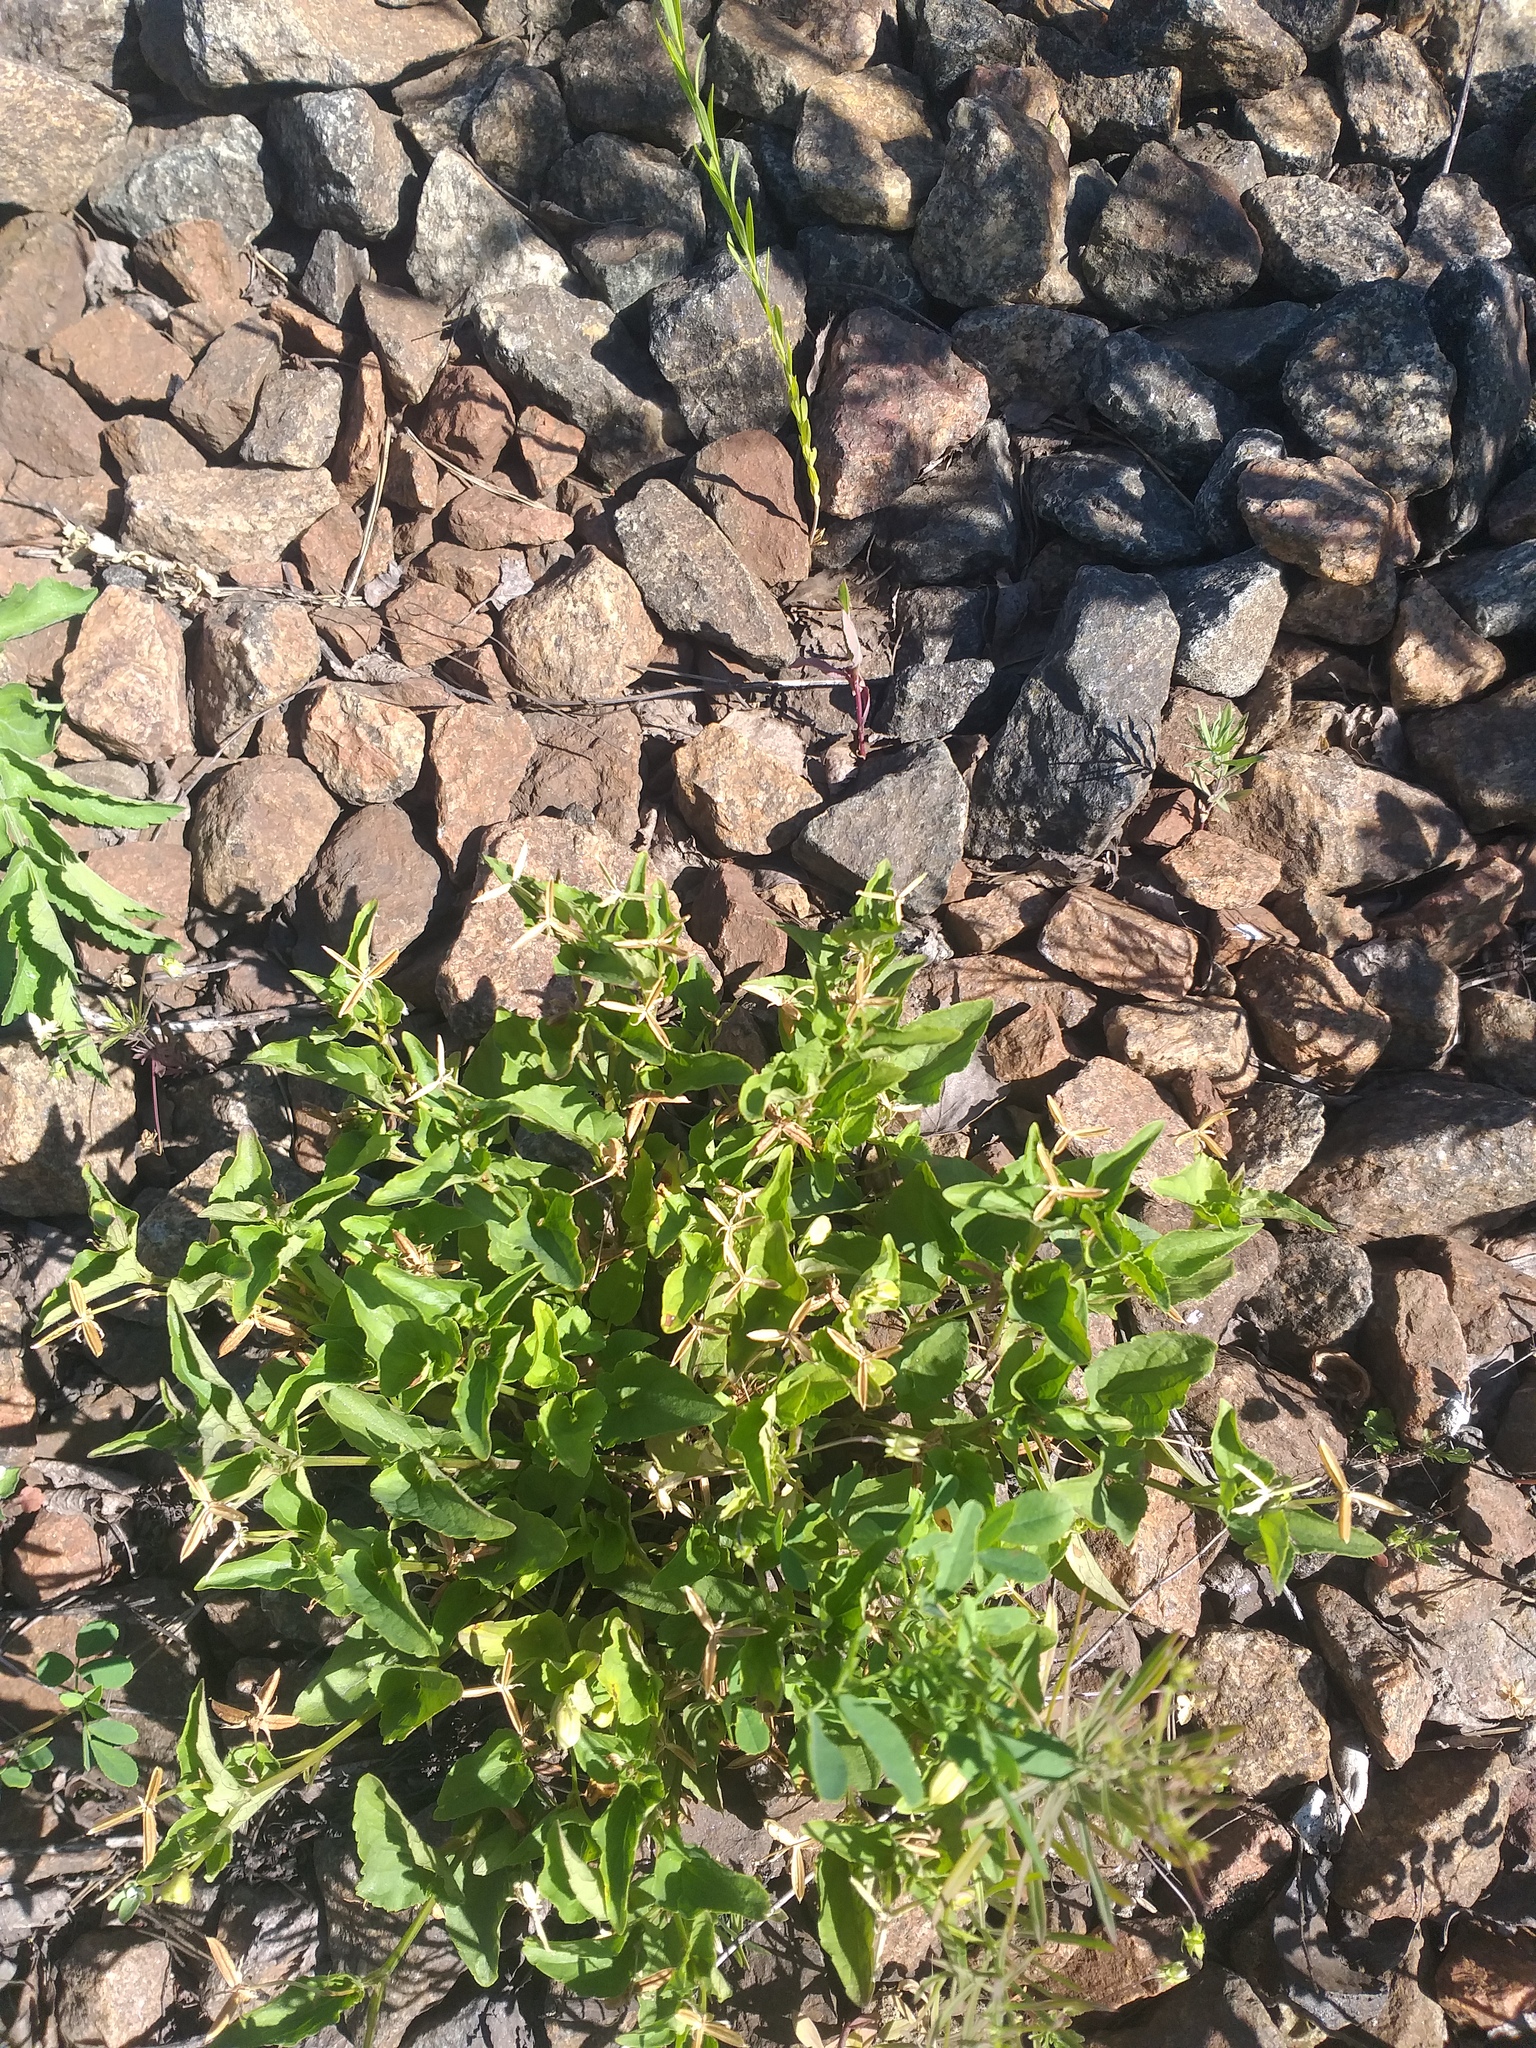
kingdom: Plantae
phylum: Tracheophyta
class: Magnoliopsida
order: Malpighiales
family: Violaceae
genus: Viola
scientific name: Viola canina
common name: Heath dog-violet
